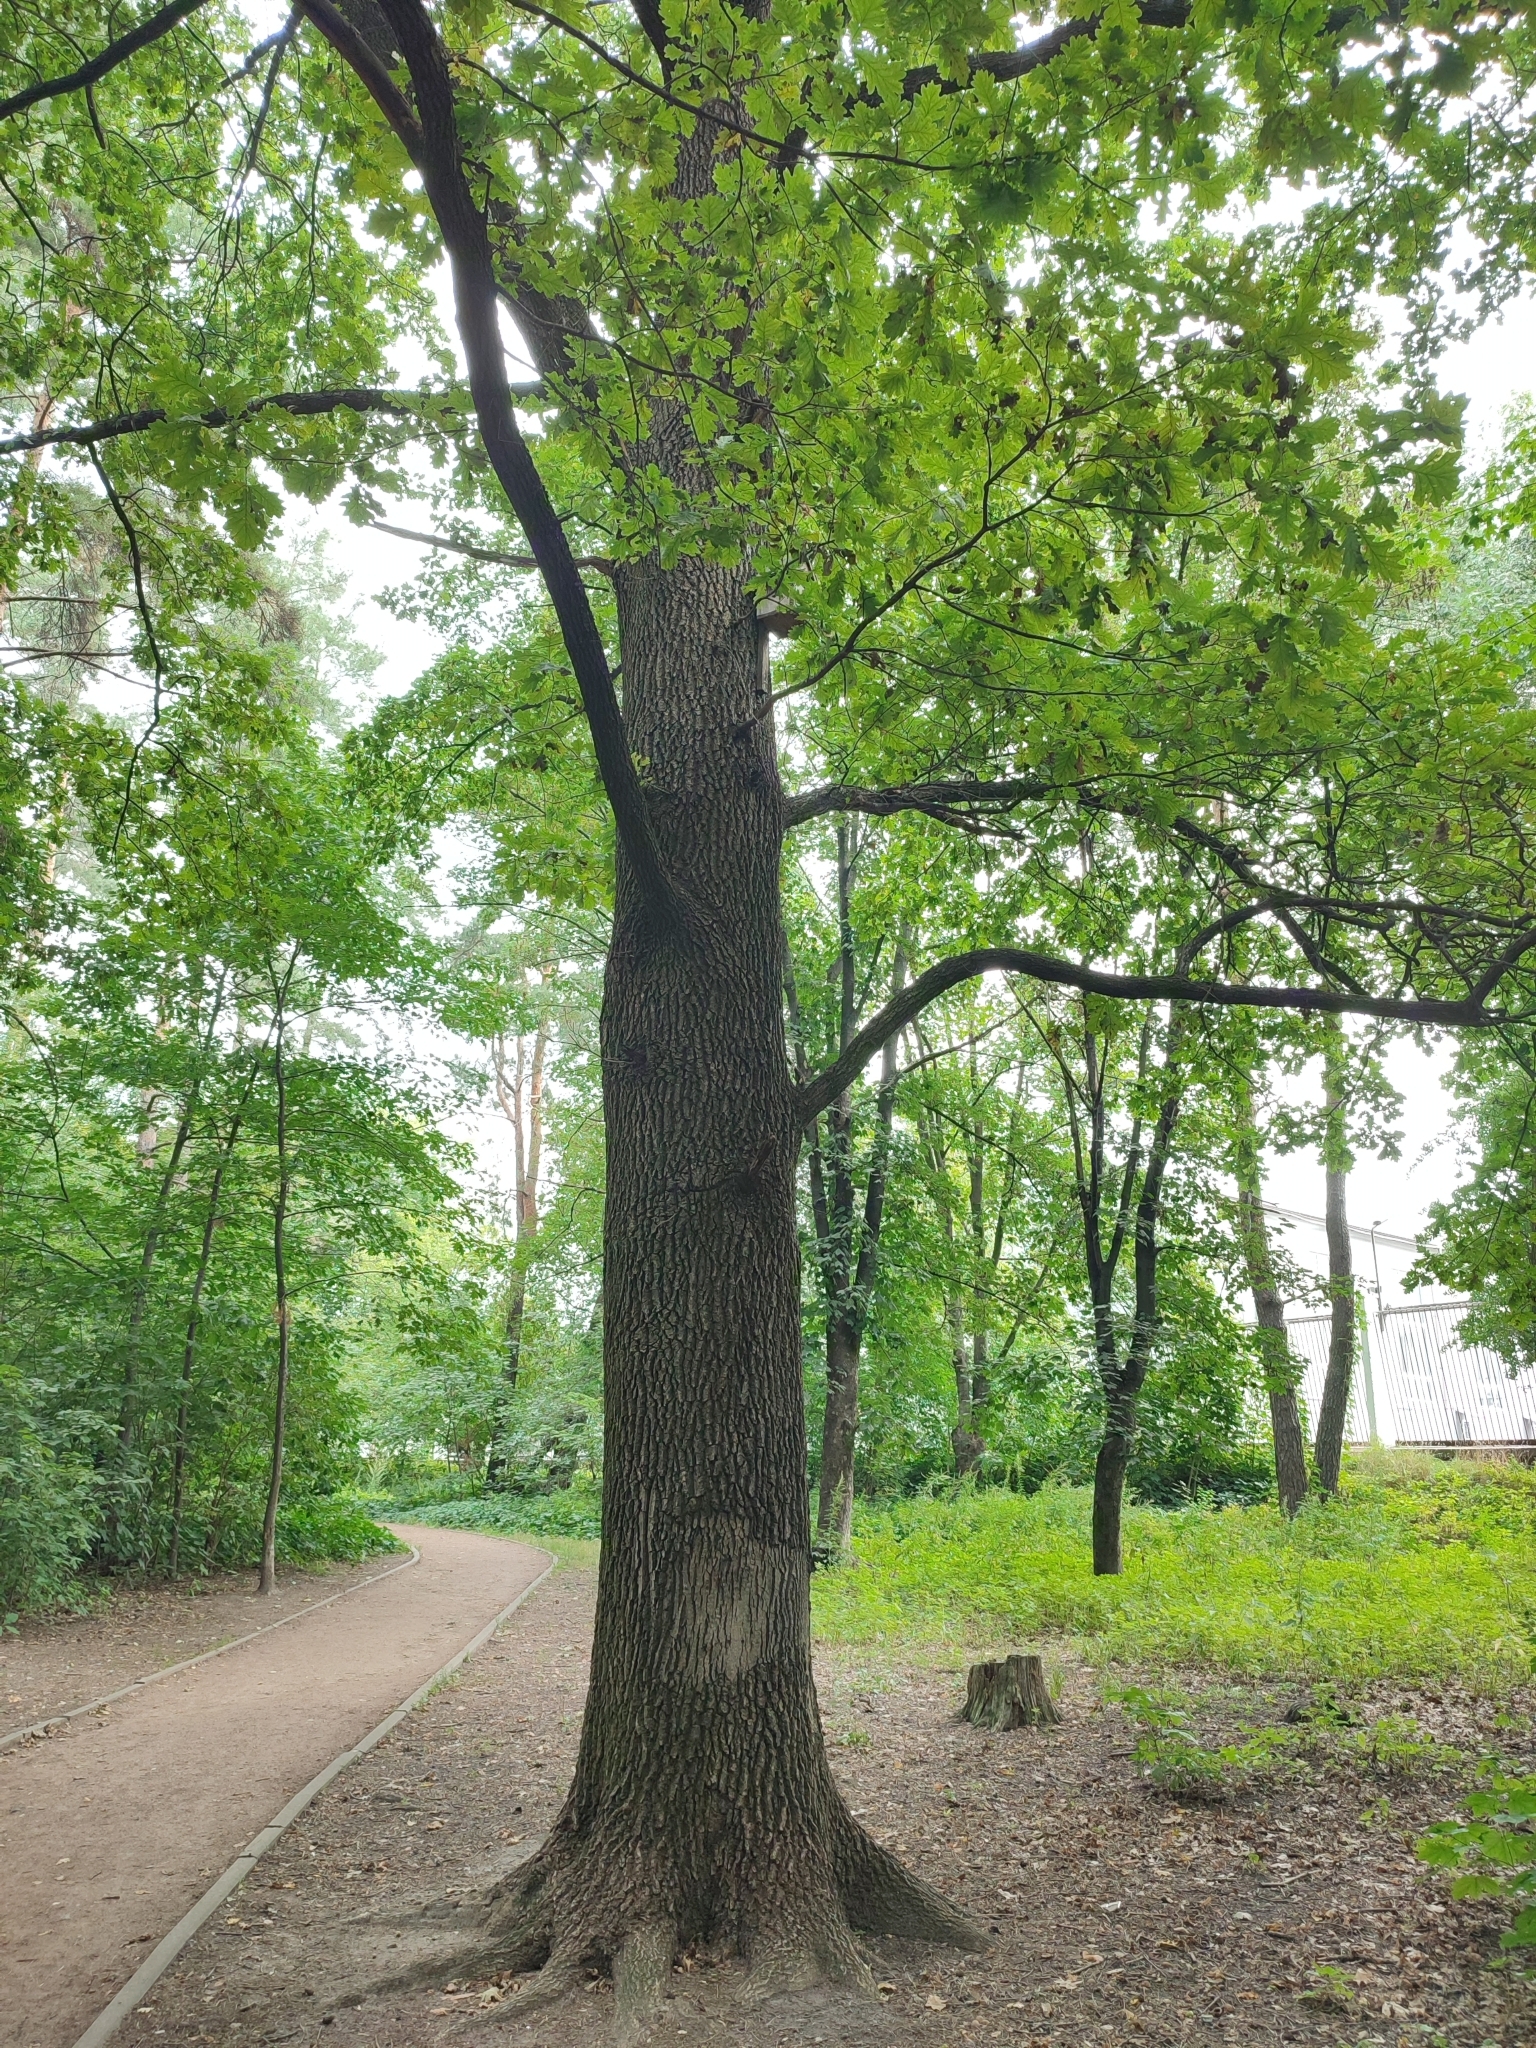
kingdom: Plantae
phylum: Tracheophyta
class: Magnoliopsida
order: Fagales
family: Fagaceae
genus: Quercus
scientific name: Quercus robur
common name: Pedunculate oak
